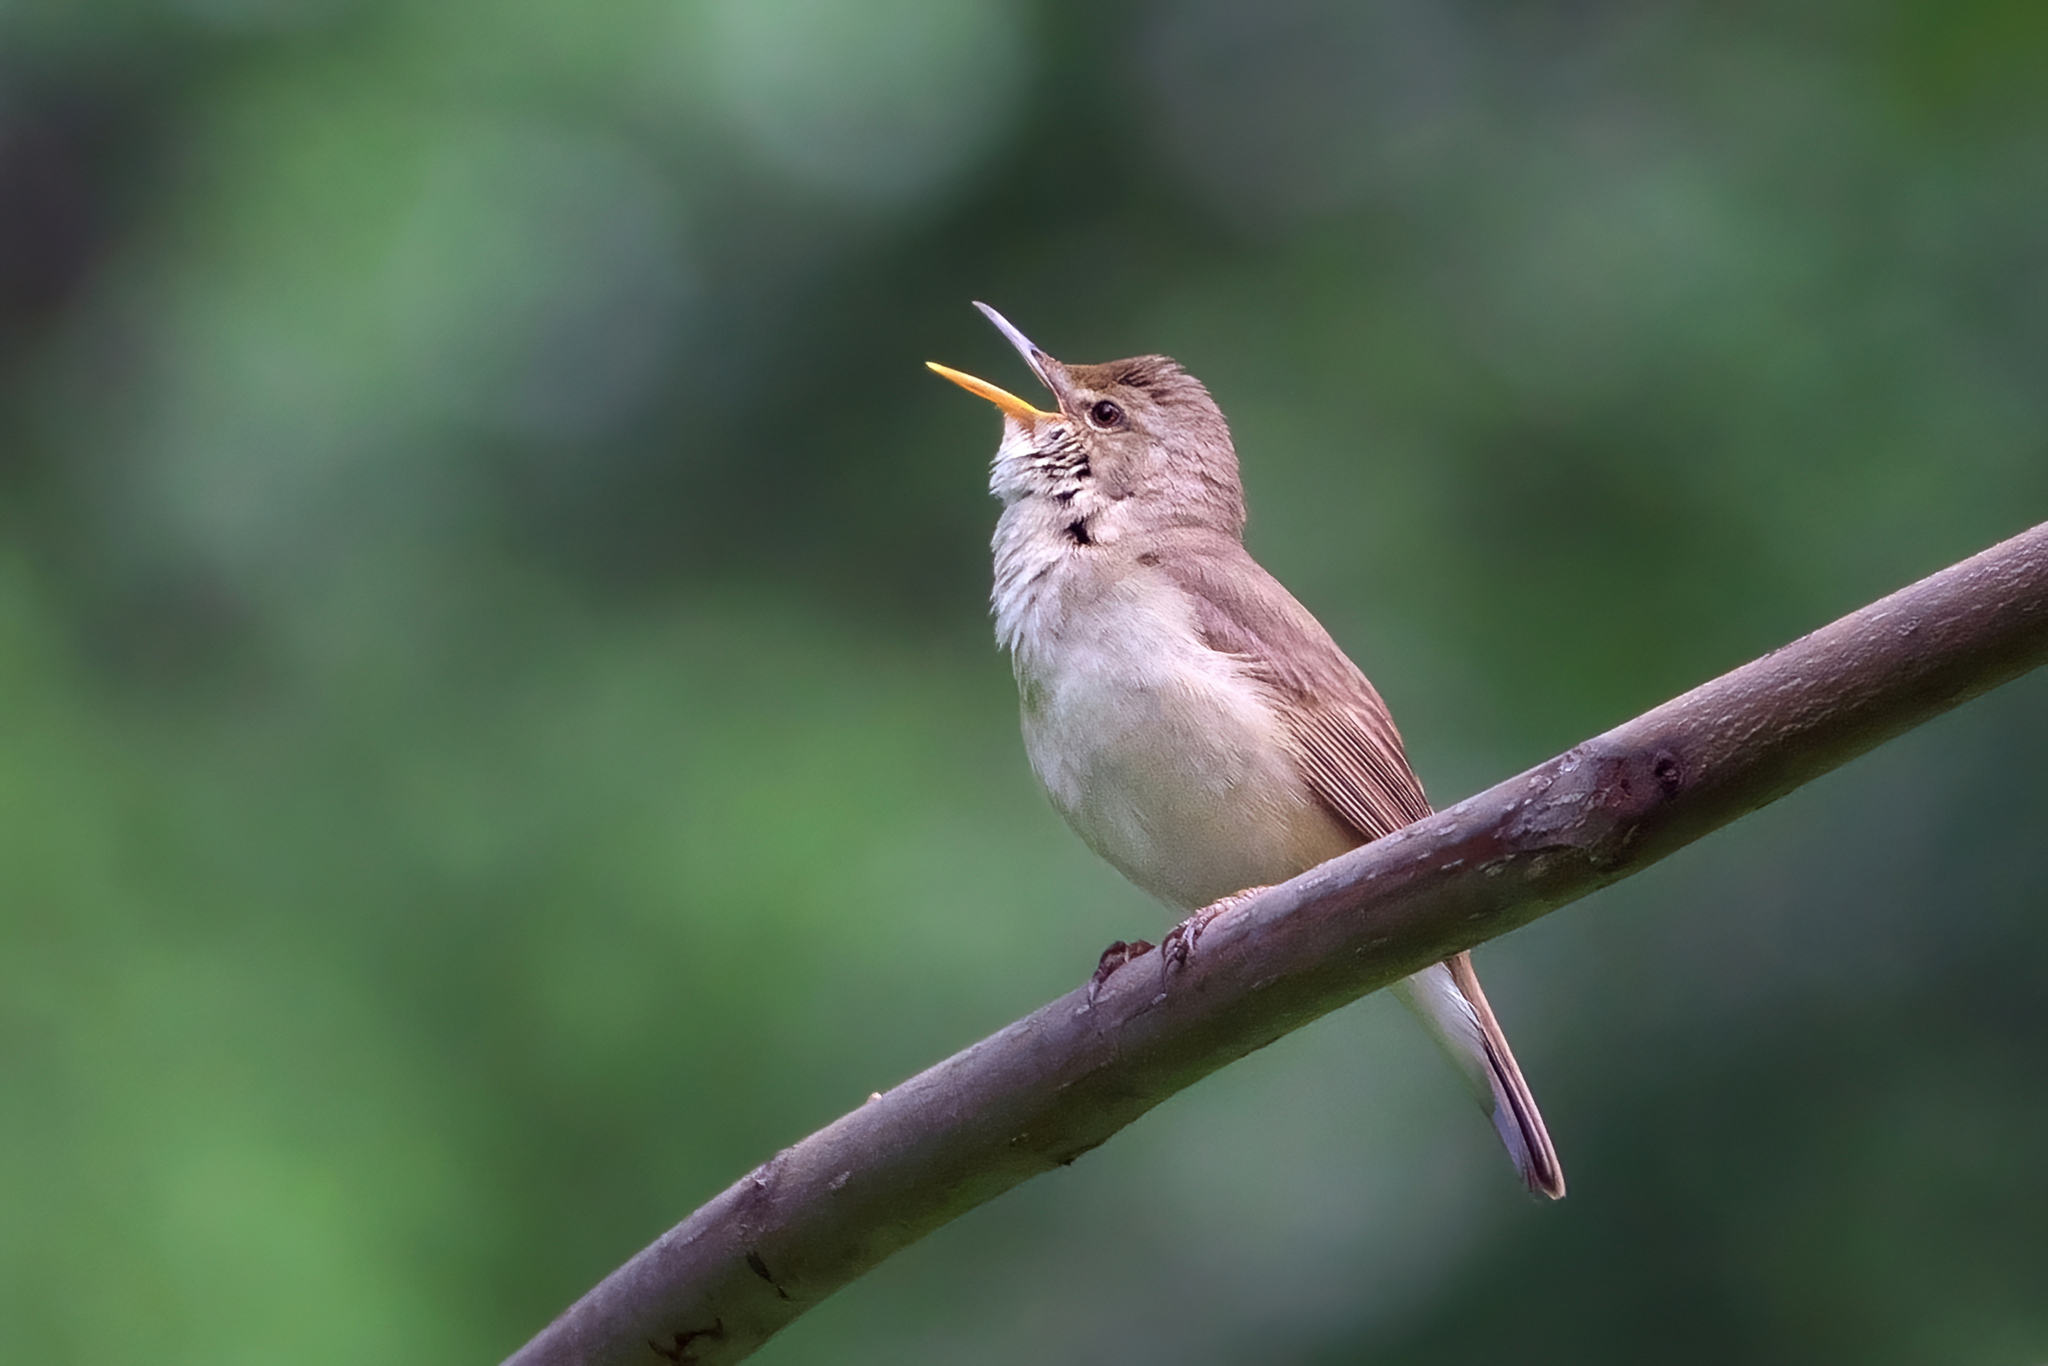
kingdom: Animalia
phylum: Chordata
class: Aves
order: Passeriformes
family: Acrocephalidae
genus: Acrocephalus
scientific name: Acrocephalus dumetorum
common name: Blyth's reed warbler
